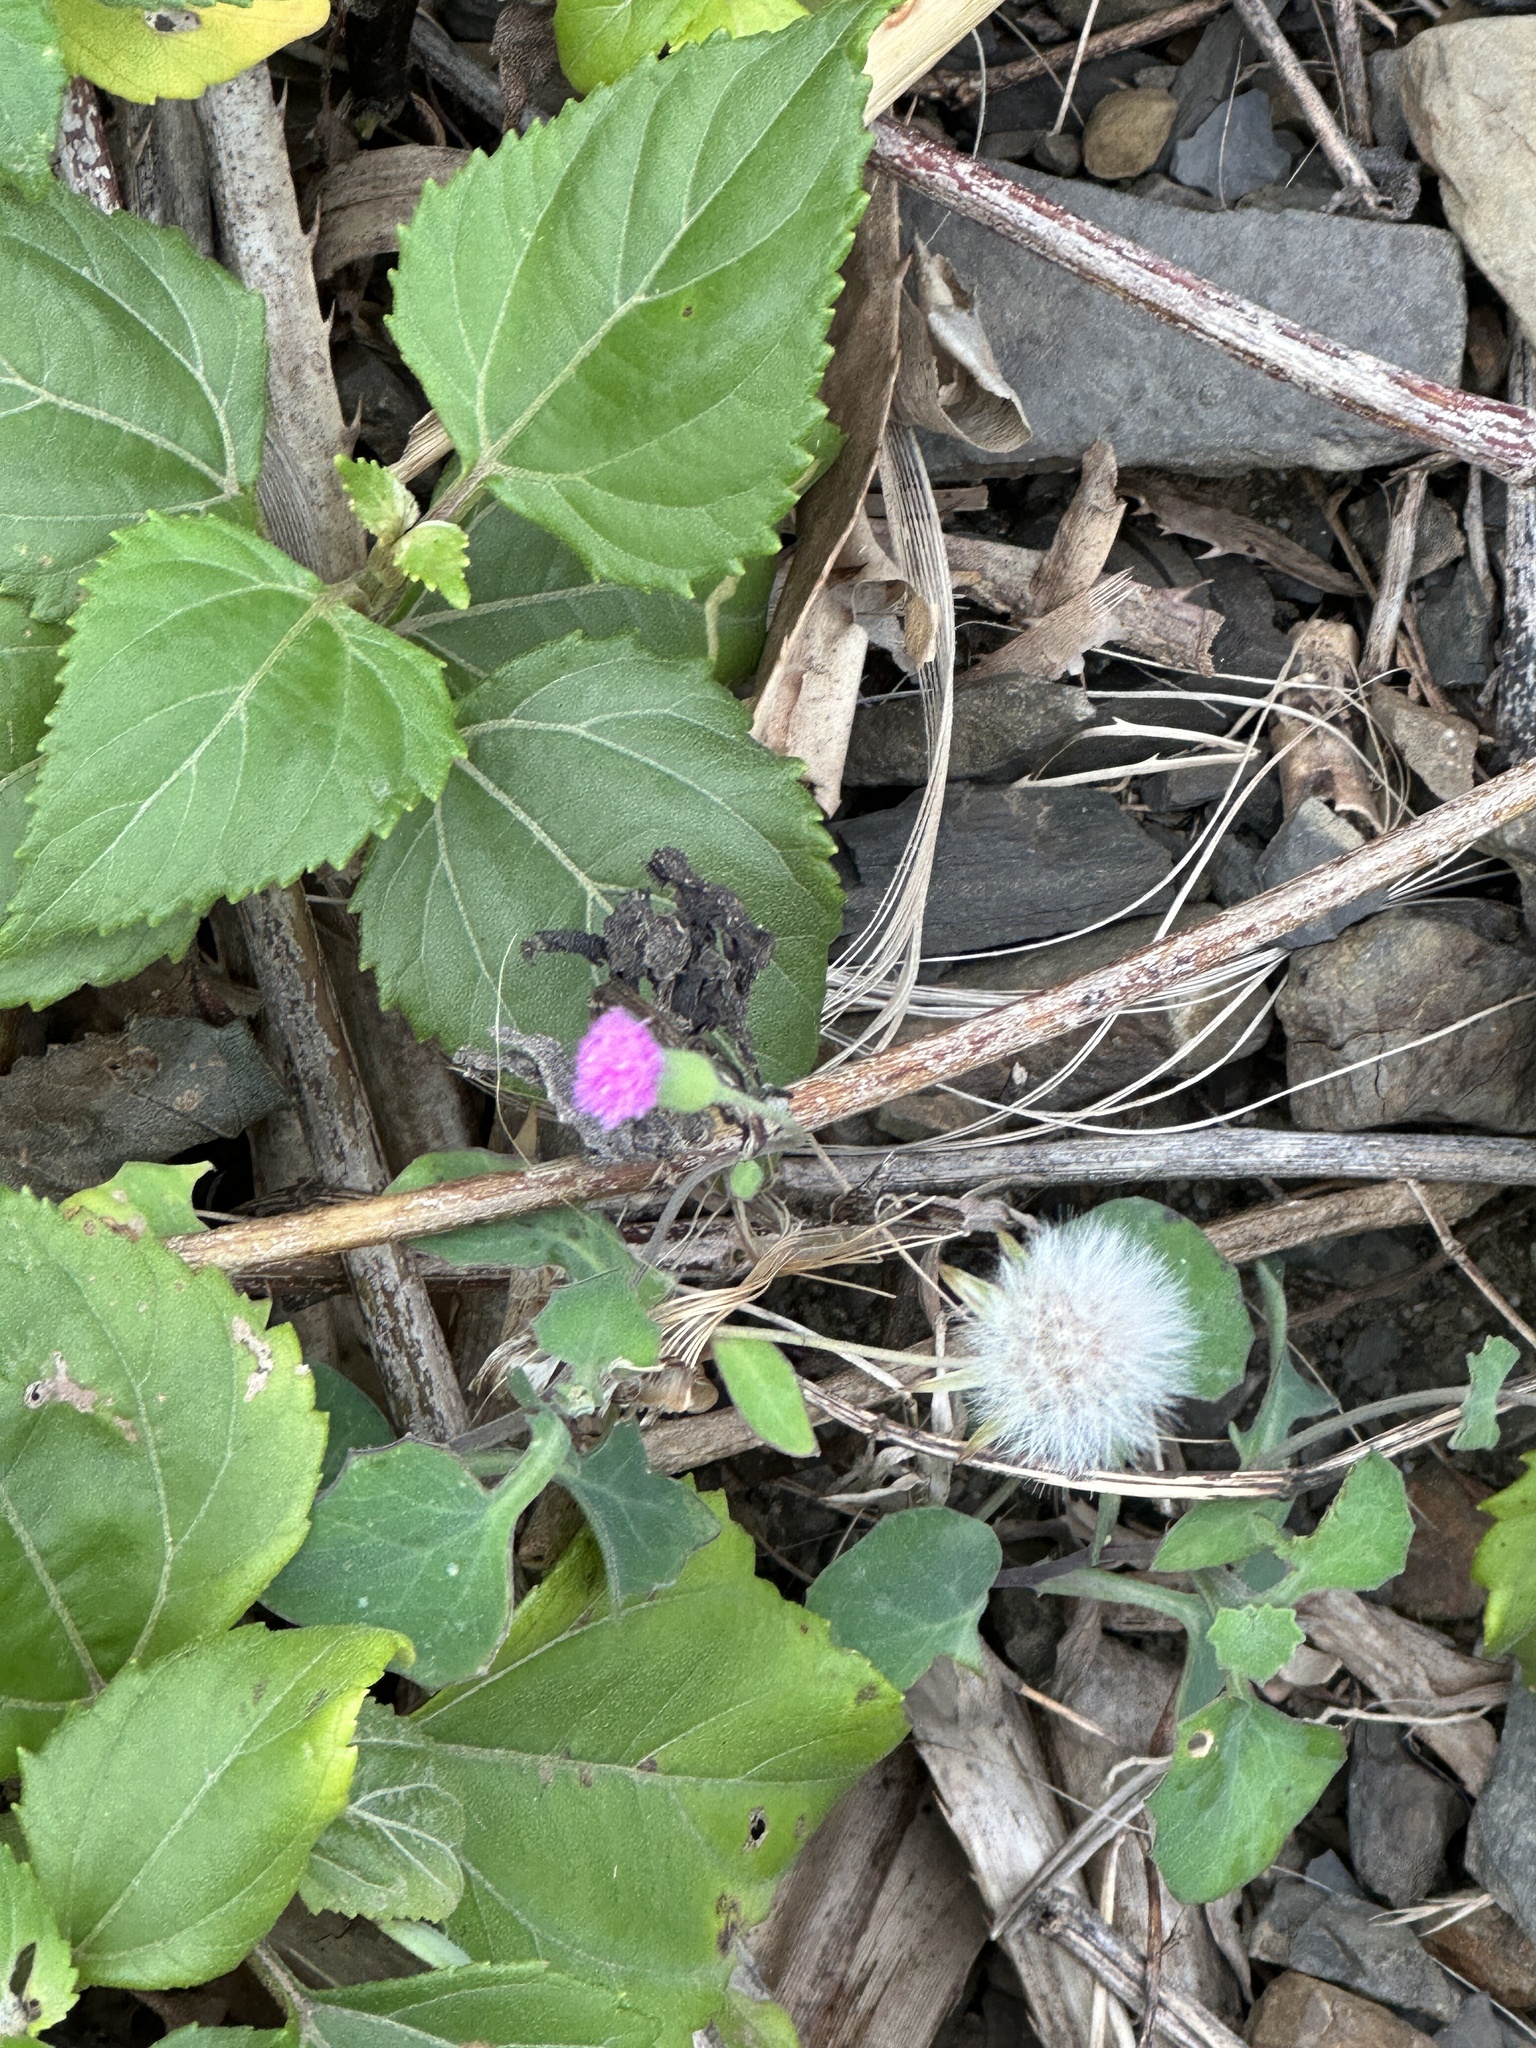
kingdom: Plantae
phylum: Tracheophyta
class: Magnoliopsida
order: Asterales
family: Asteraceae
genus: Emilia
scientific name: Emilia javanica
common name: Tassel-flower
